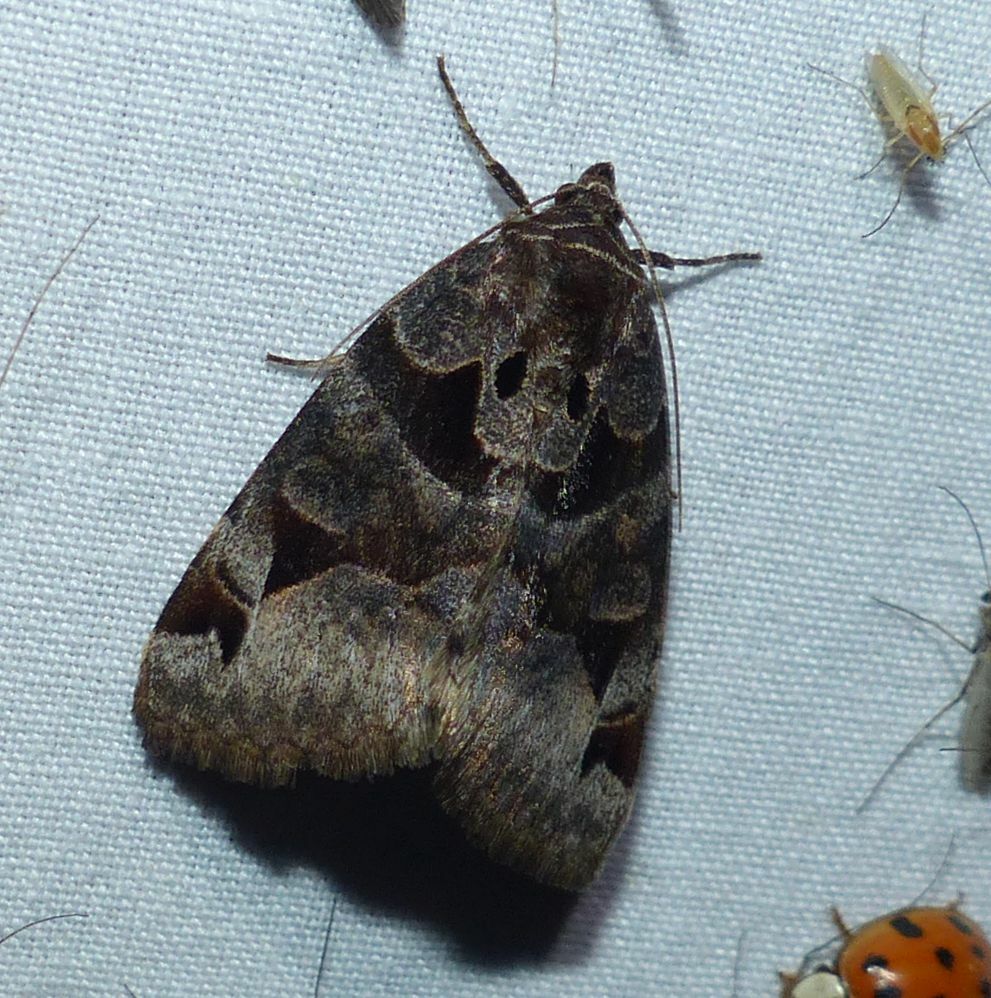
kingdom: Animalia
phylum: Arthropoda
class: Insecta
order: Lepidoptera
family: Erebidae
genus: Euclidia
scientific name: Euclidia cuspidea
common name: Toothed somberwing
